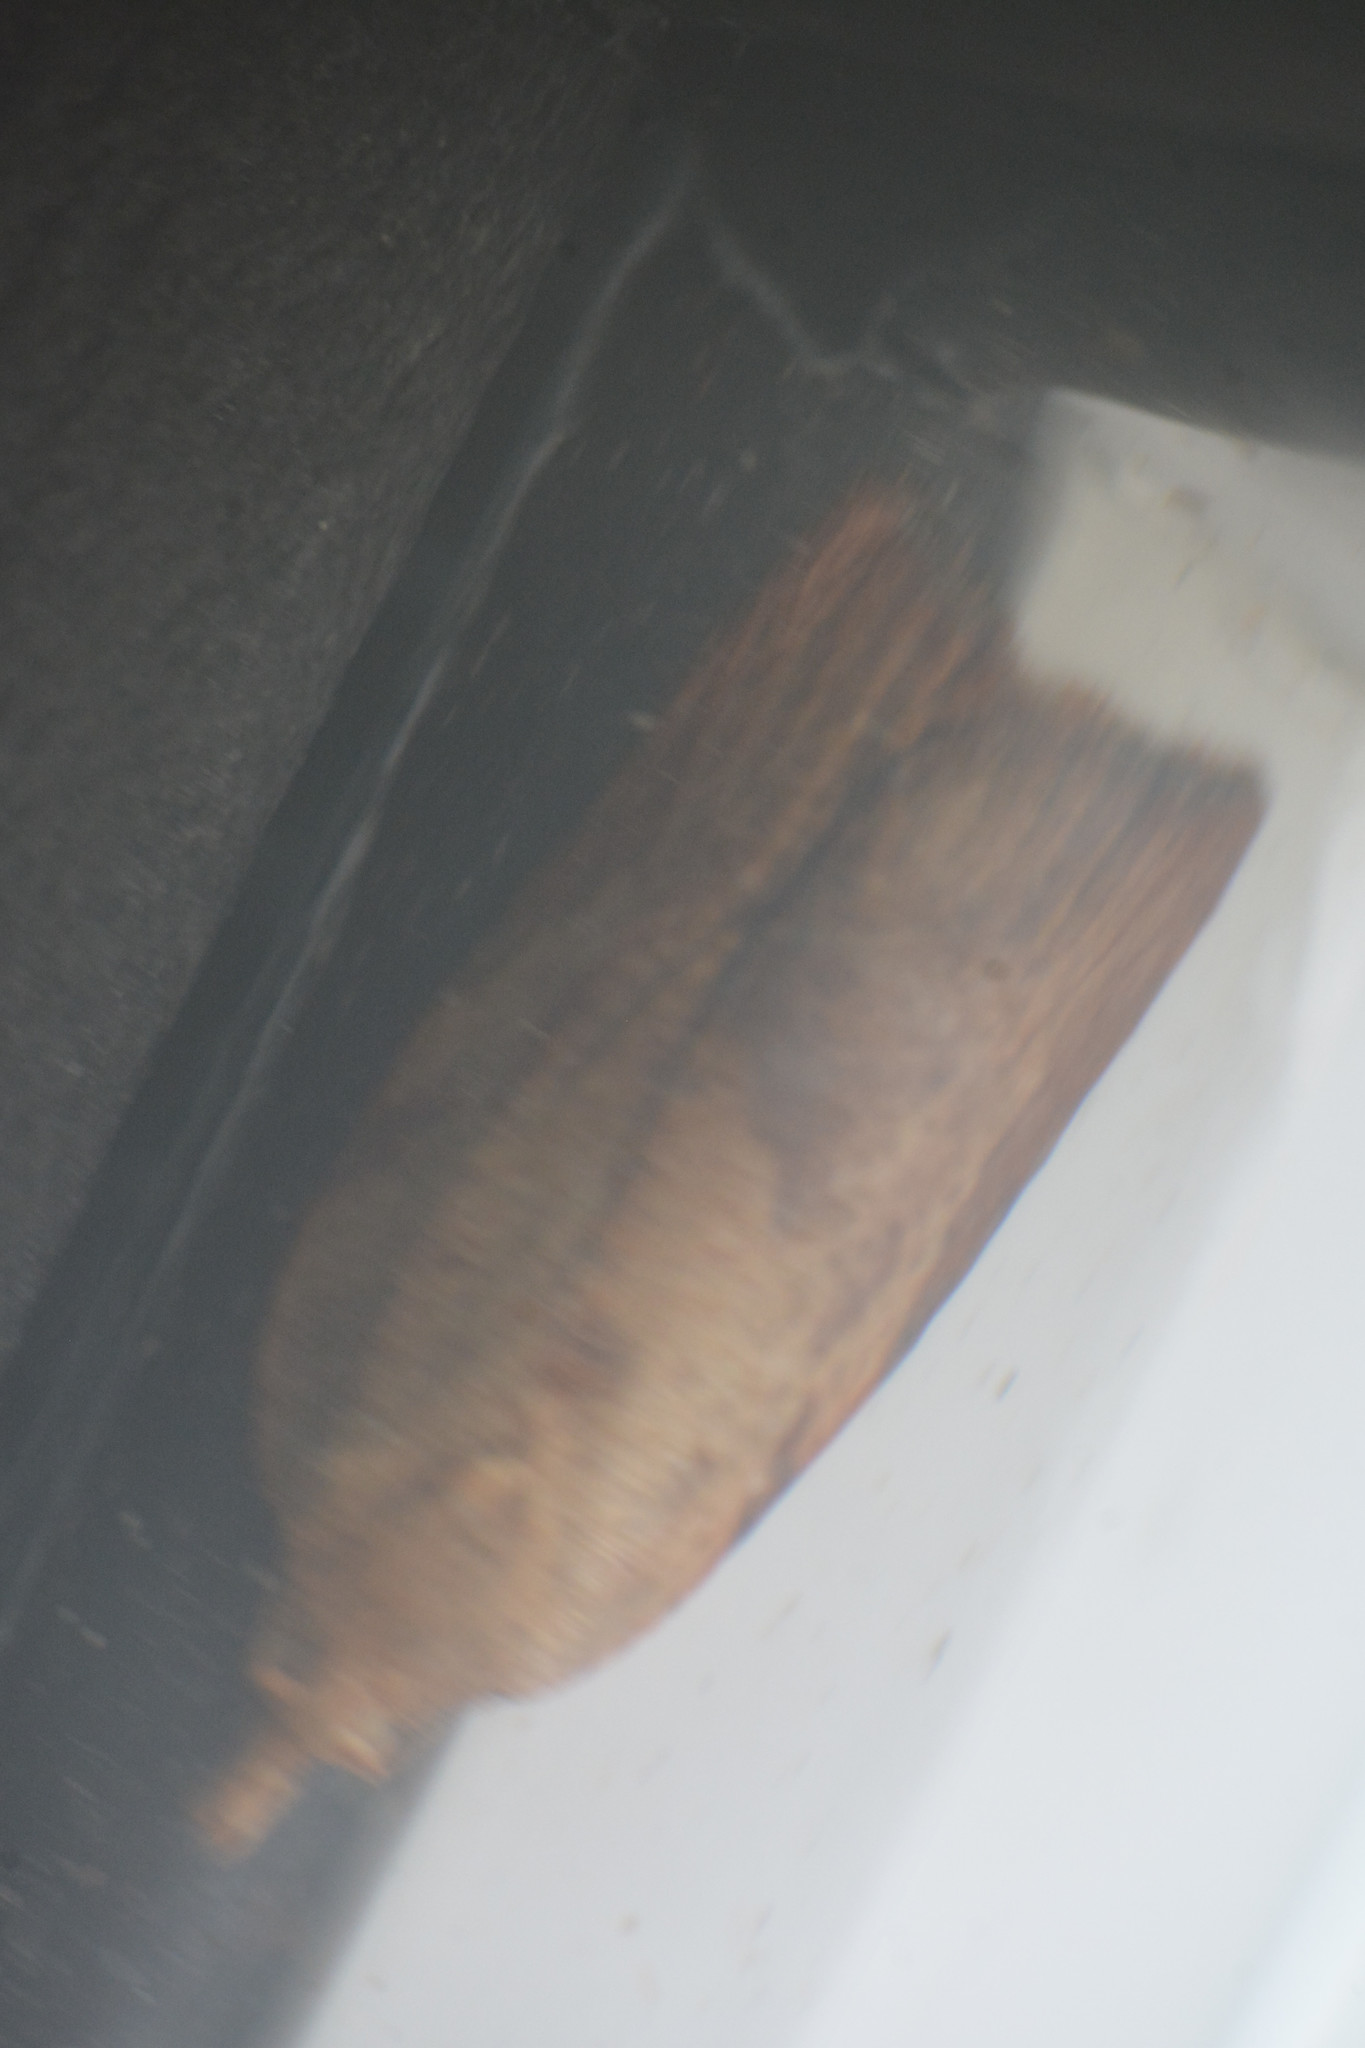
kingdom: Animalia
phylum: Arthropoda
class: Insecta
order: Lepidoptera
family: Tortricidae
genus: Epiphyas
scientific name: Epiphyas postvittana
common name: Light brown apple moth
